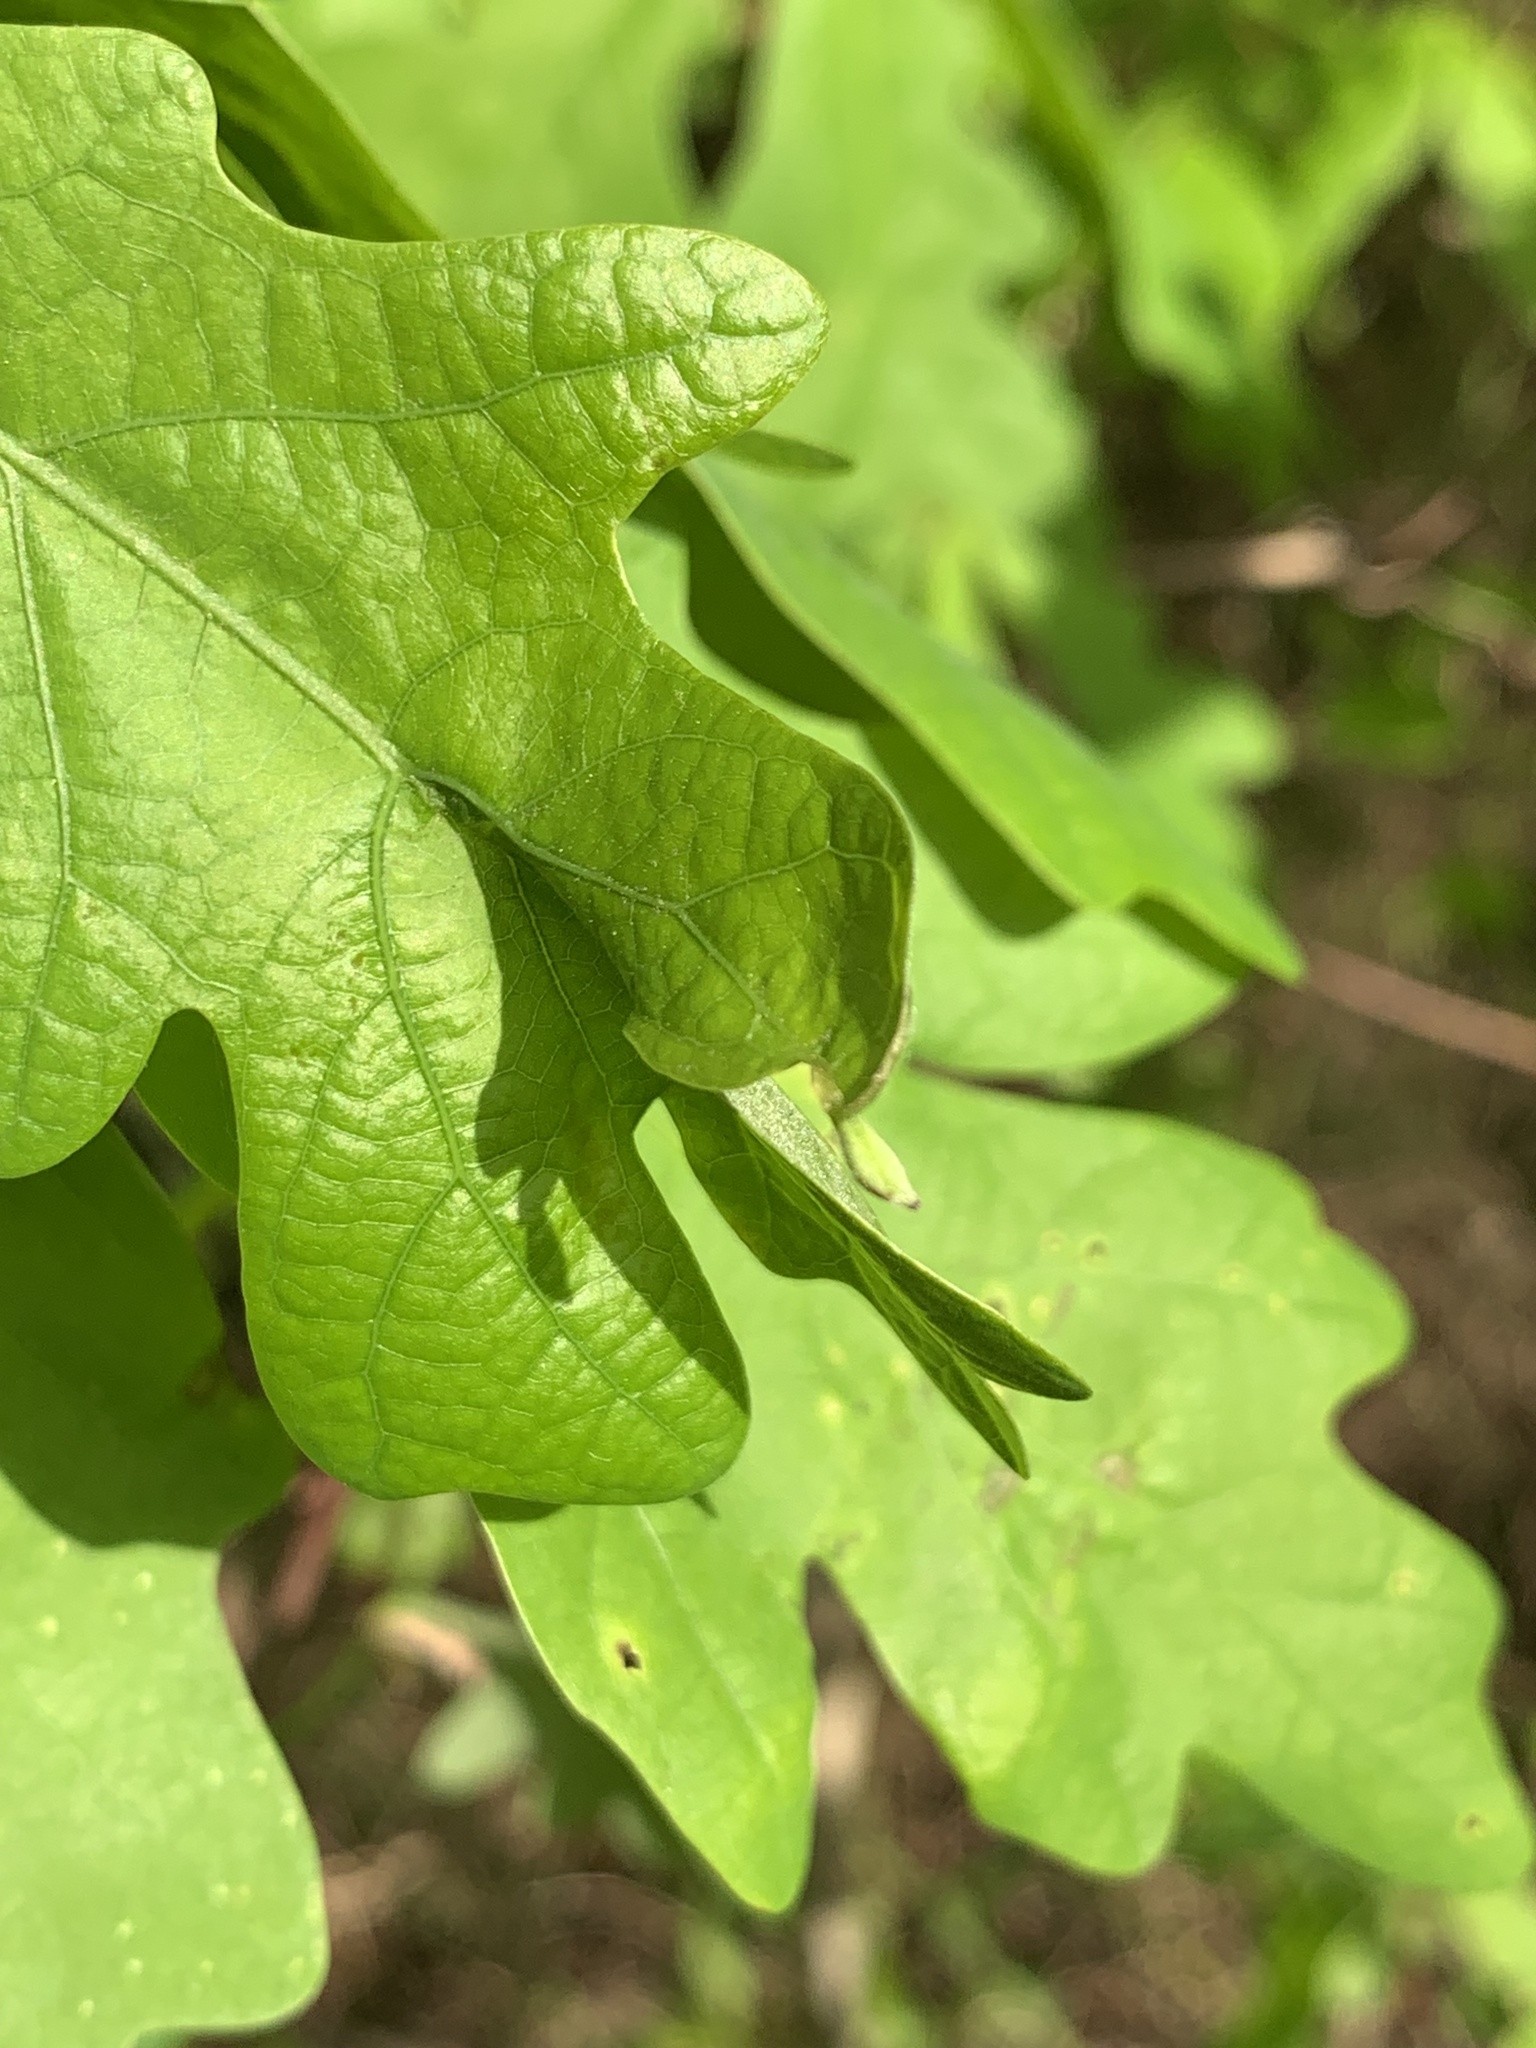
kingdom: Animalia
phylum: Arthropoda
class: Insecta
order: Hymenoptera
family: Cynipidae
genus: Andricus
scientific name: Andricus
